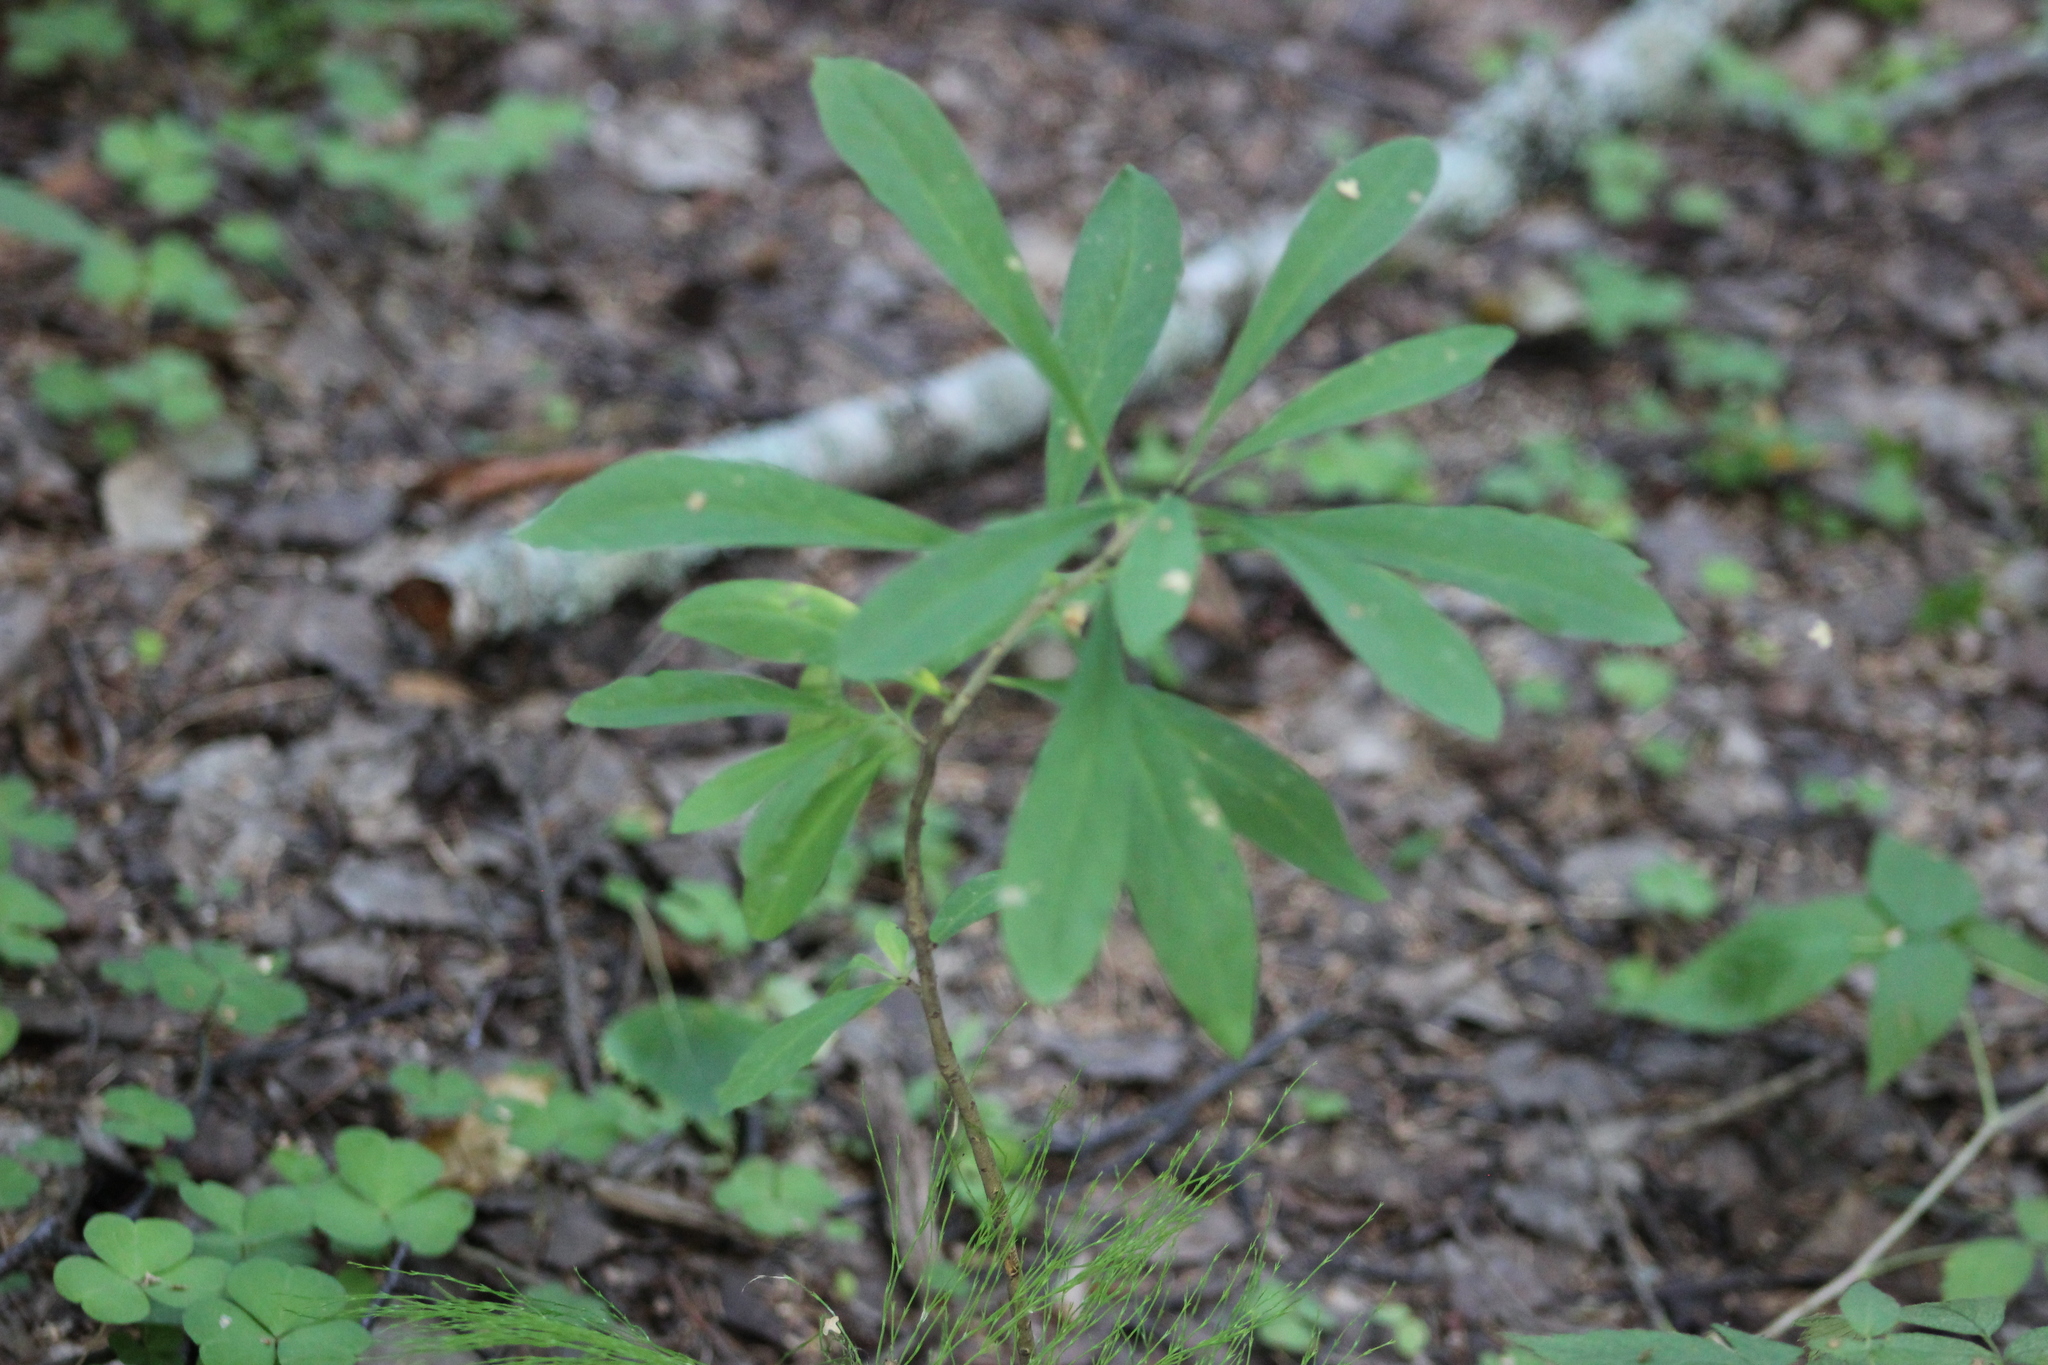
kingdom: Plantae
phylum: Tracheophyta
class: Magnoliopsida
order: Malvales
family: Thymelaeaceae
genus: Daphne
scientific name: Daphne mezereum
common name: Mezereon
